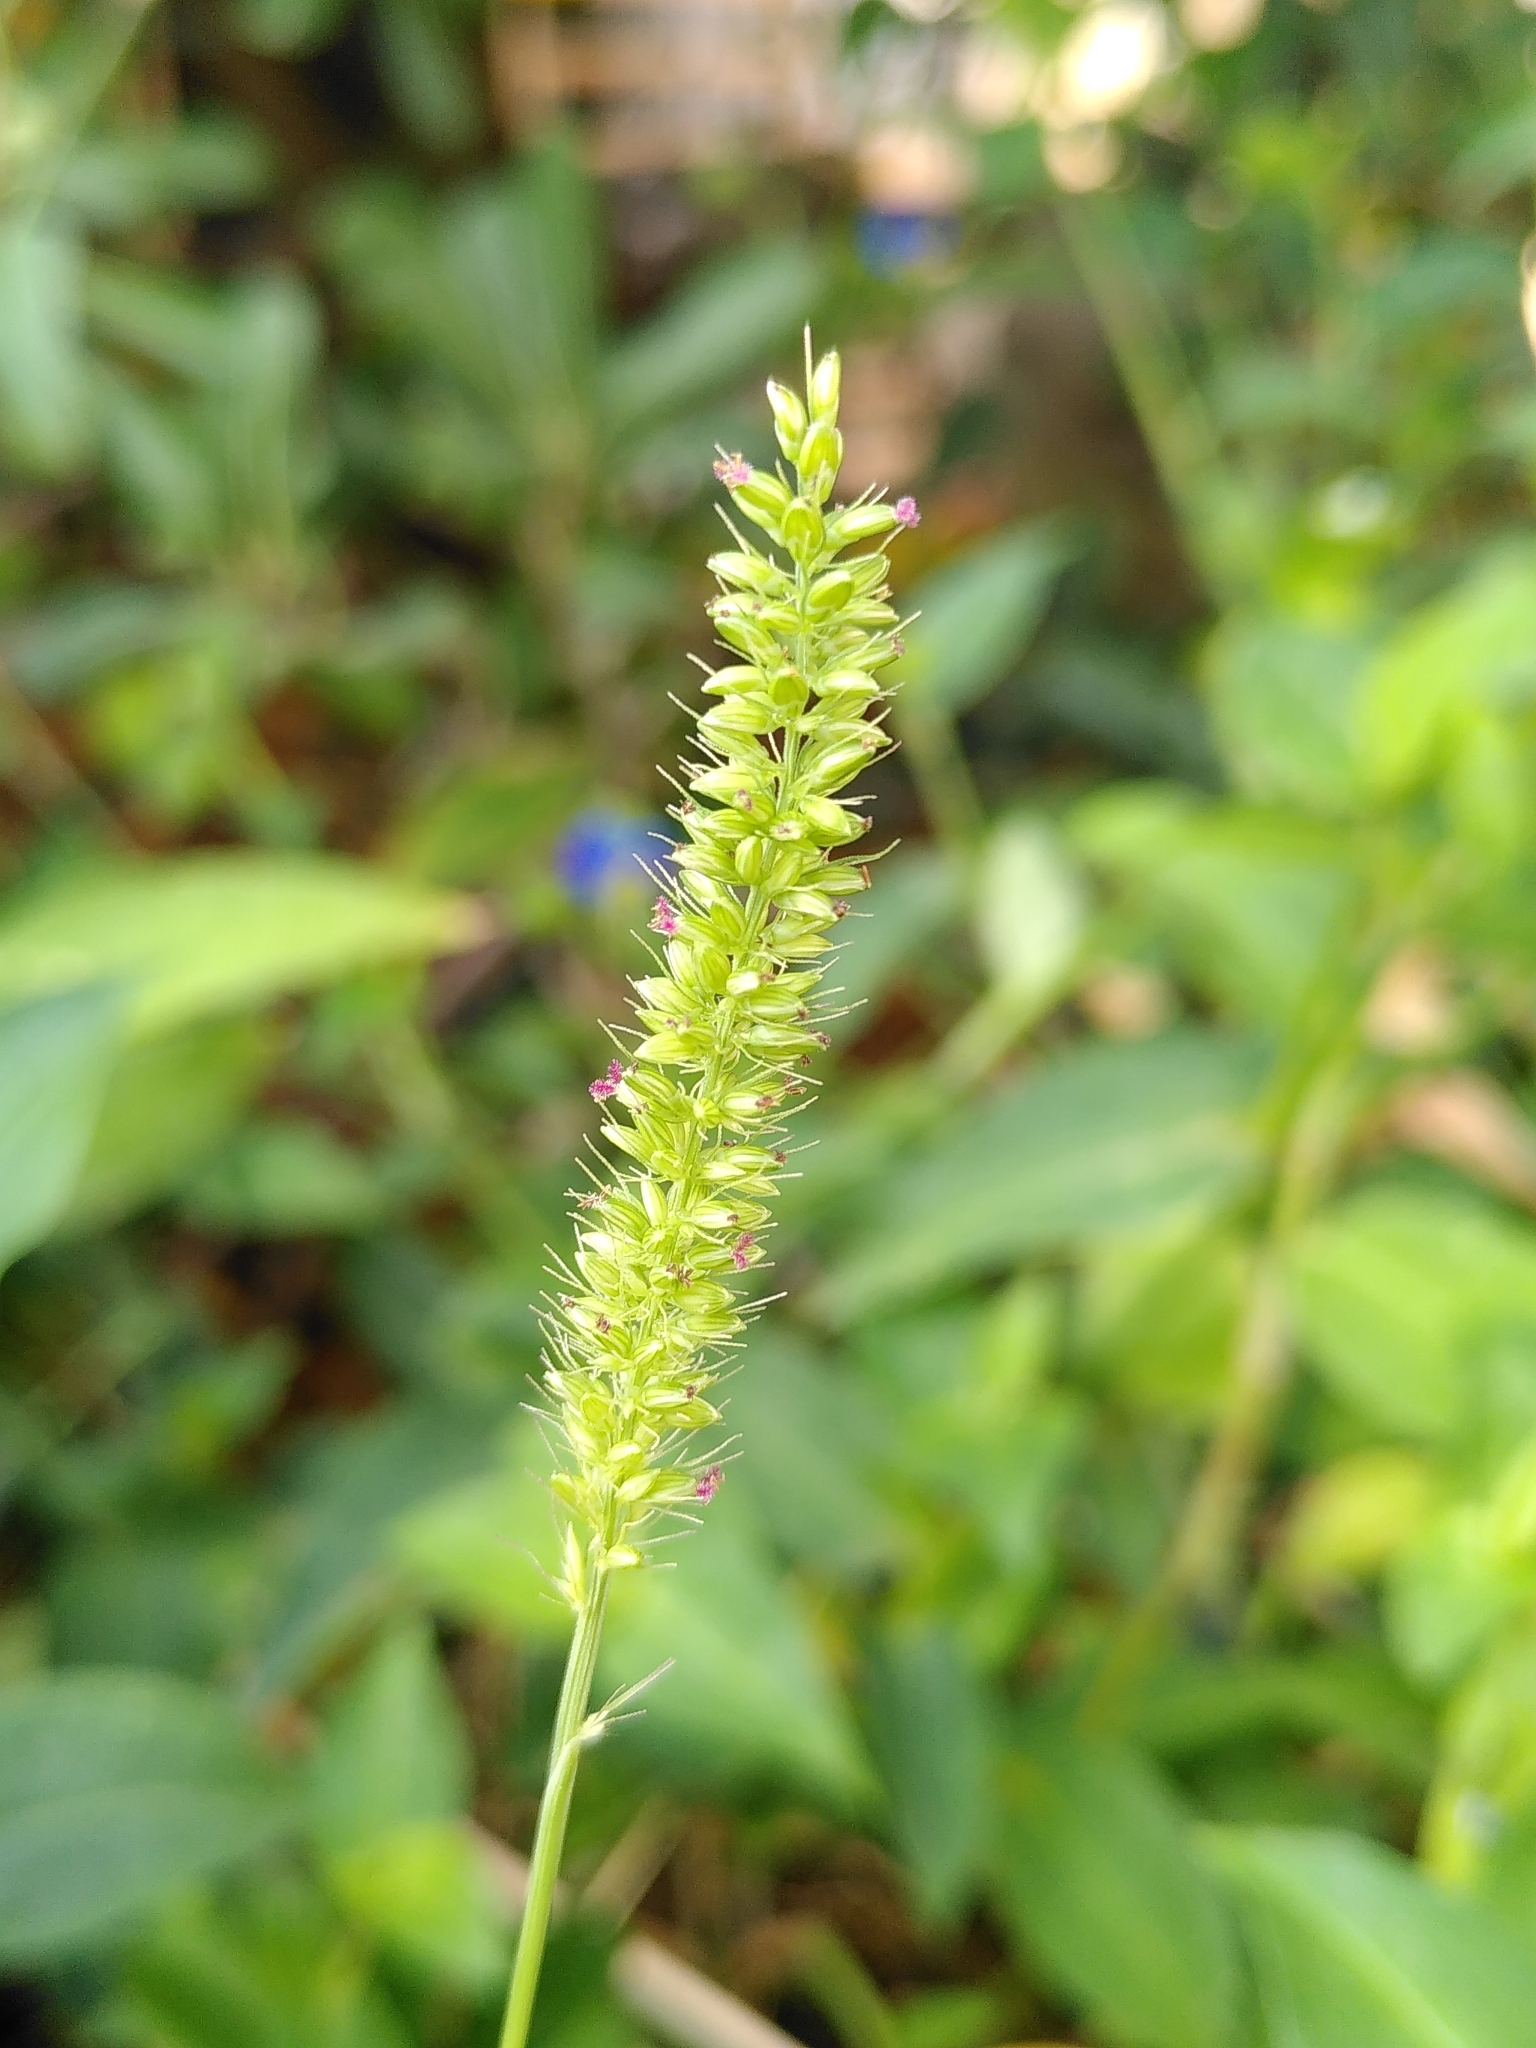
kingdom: Plantae
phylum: Tracheophyta
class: Liliopsida
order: Poales
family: Poaceae
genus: Setaria
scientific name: Setaria verticillata
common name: Hooked bristlegrass
